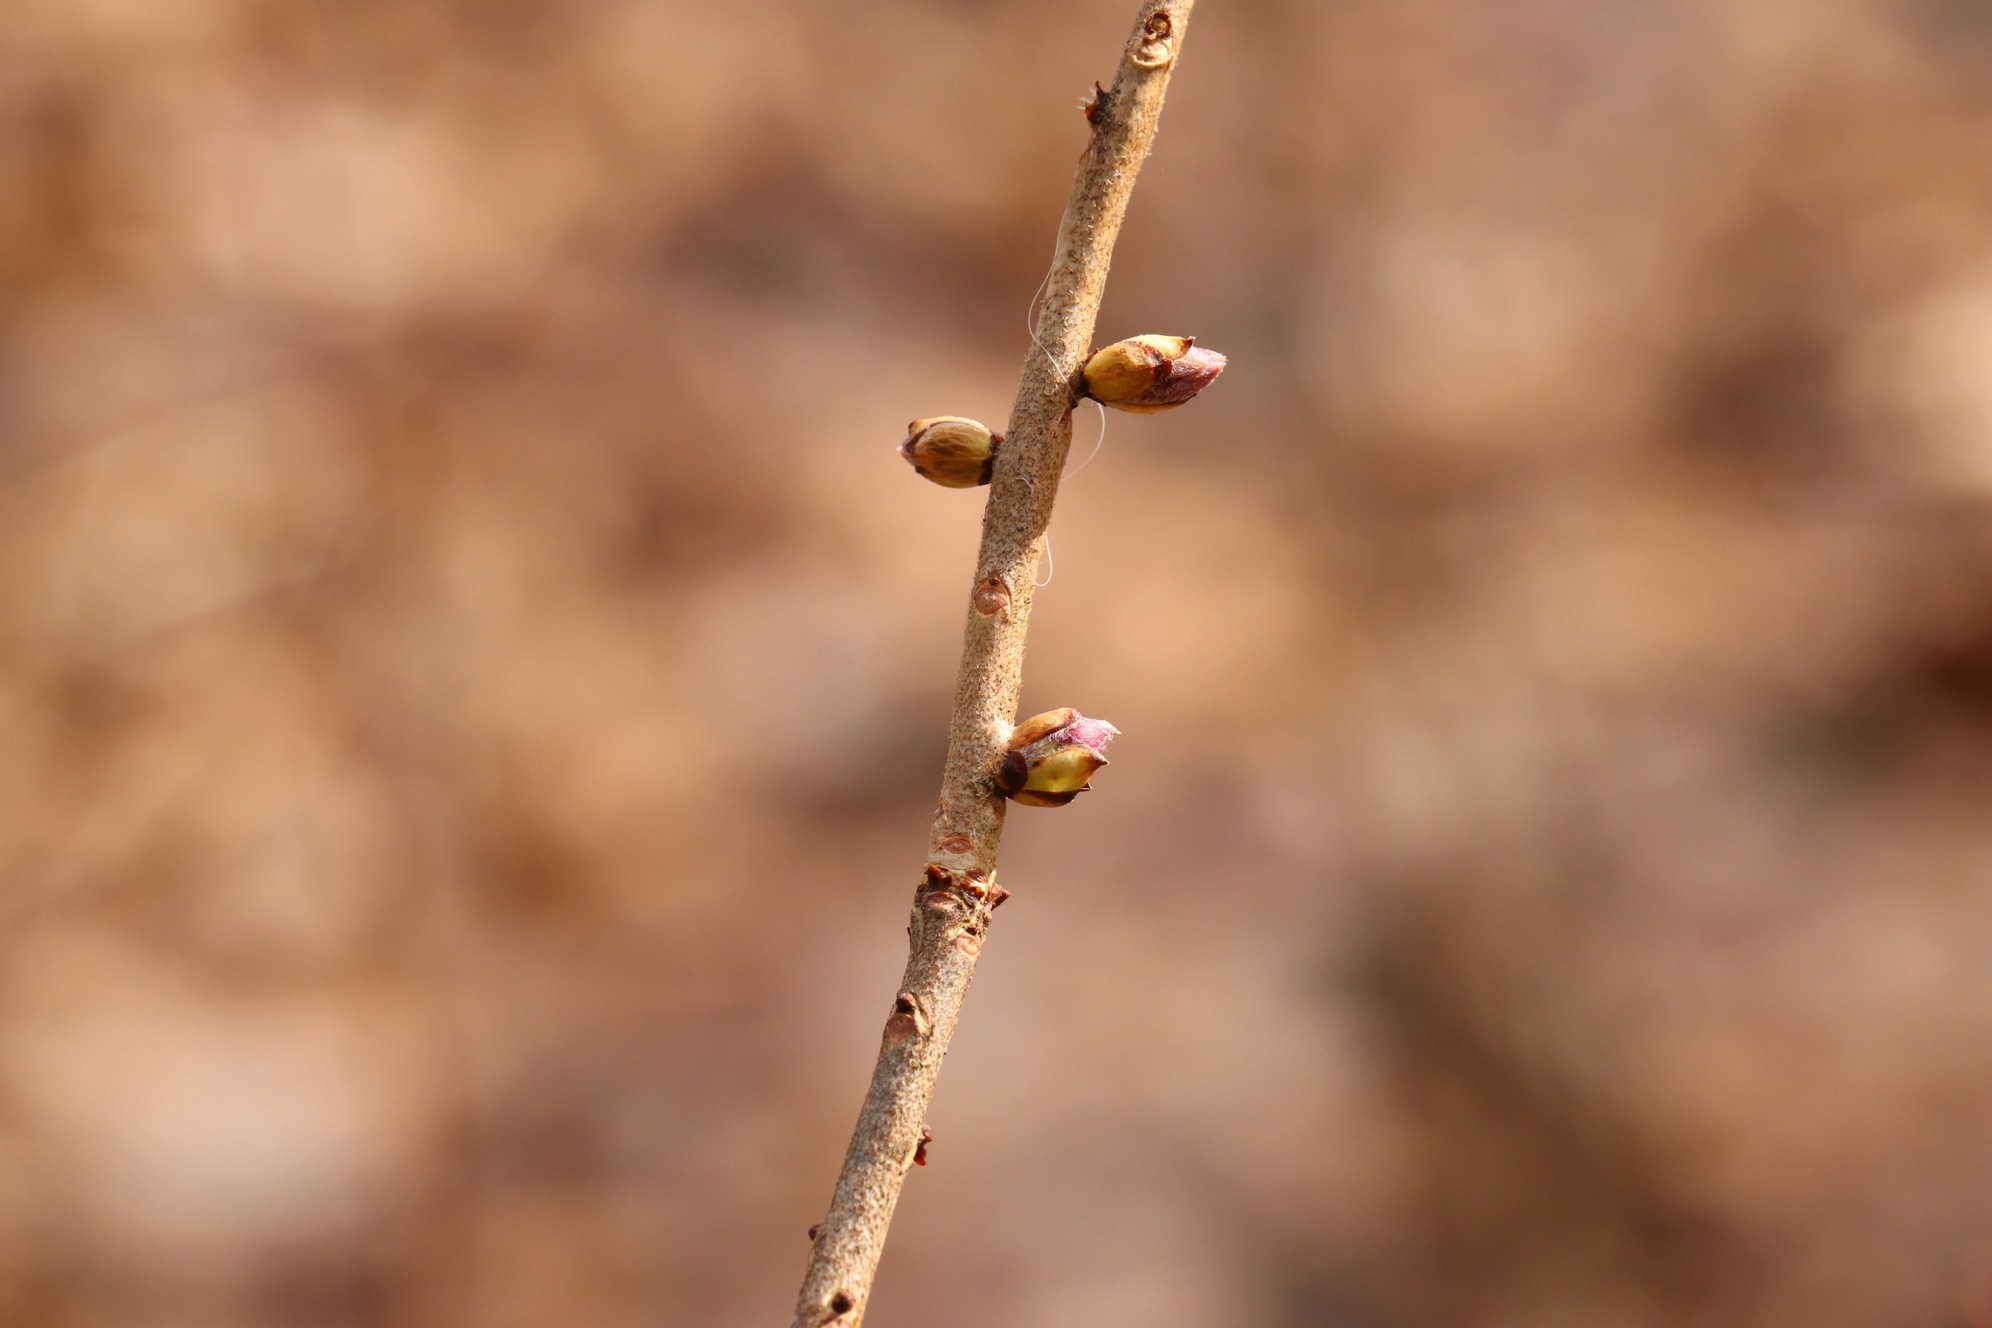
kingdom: Plantae
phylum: Tracheophyta
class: Magnoliopsida
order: Malvales
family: Thymelaeaceae
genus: Daphne
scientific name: Daphne mezereum
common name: Mezereon
